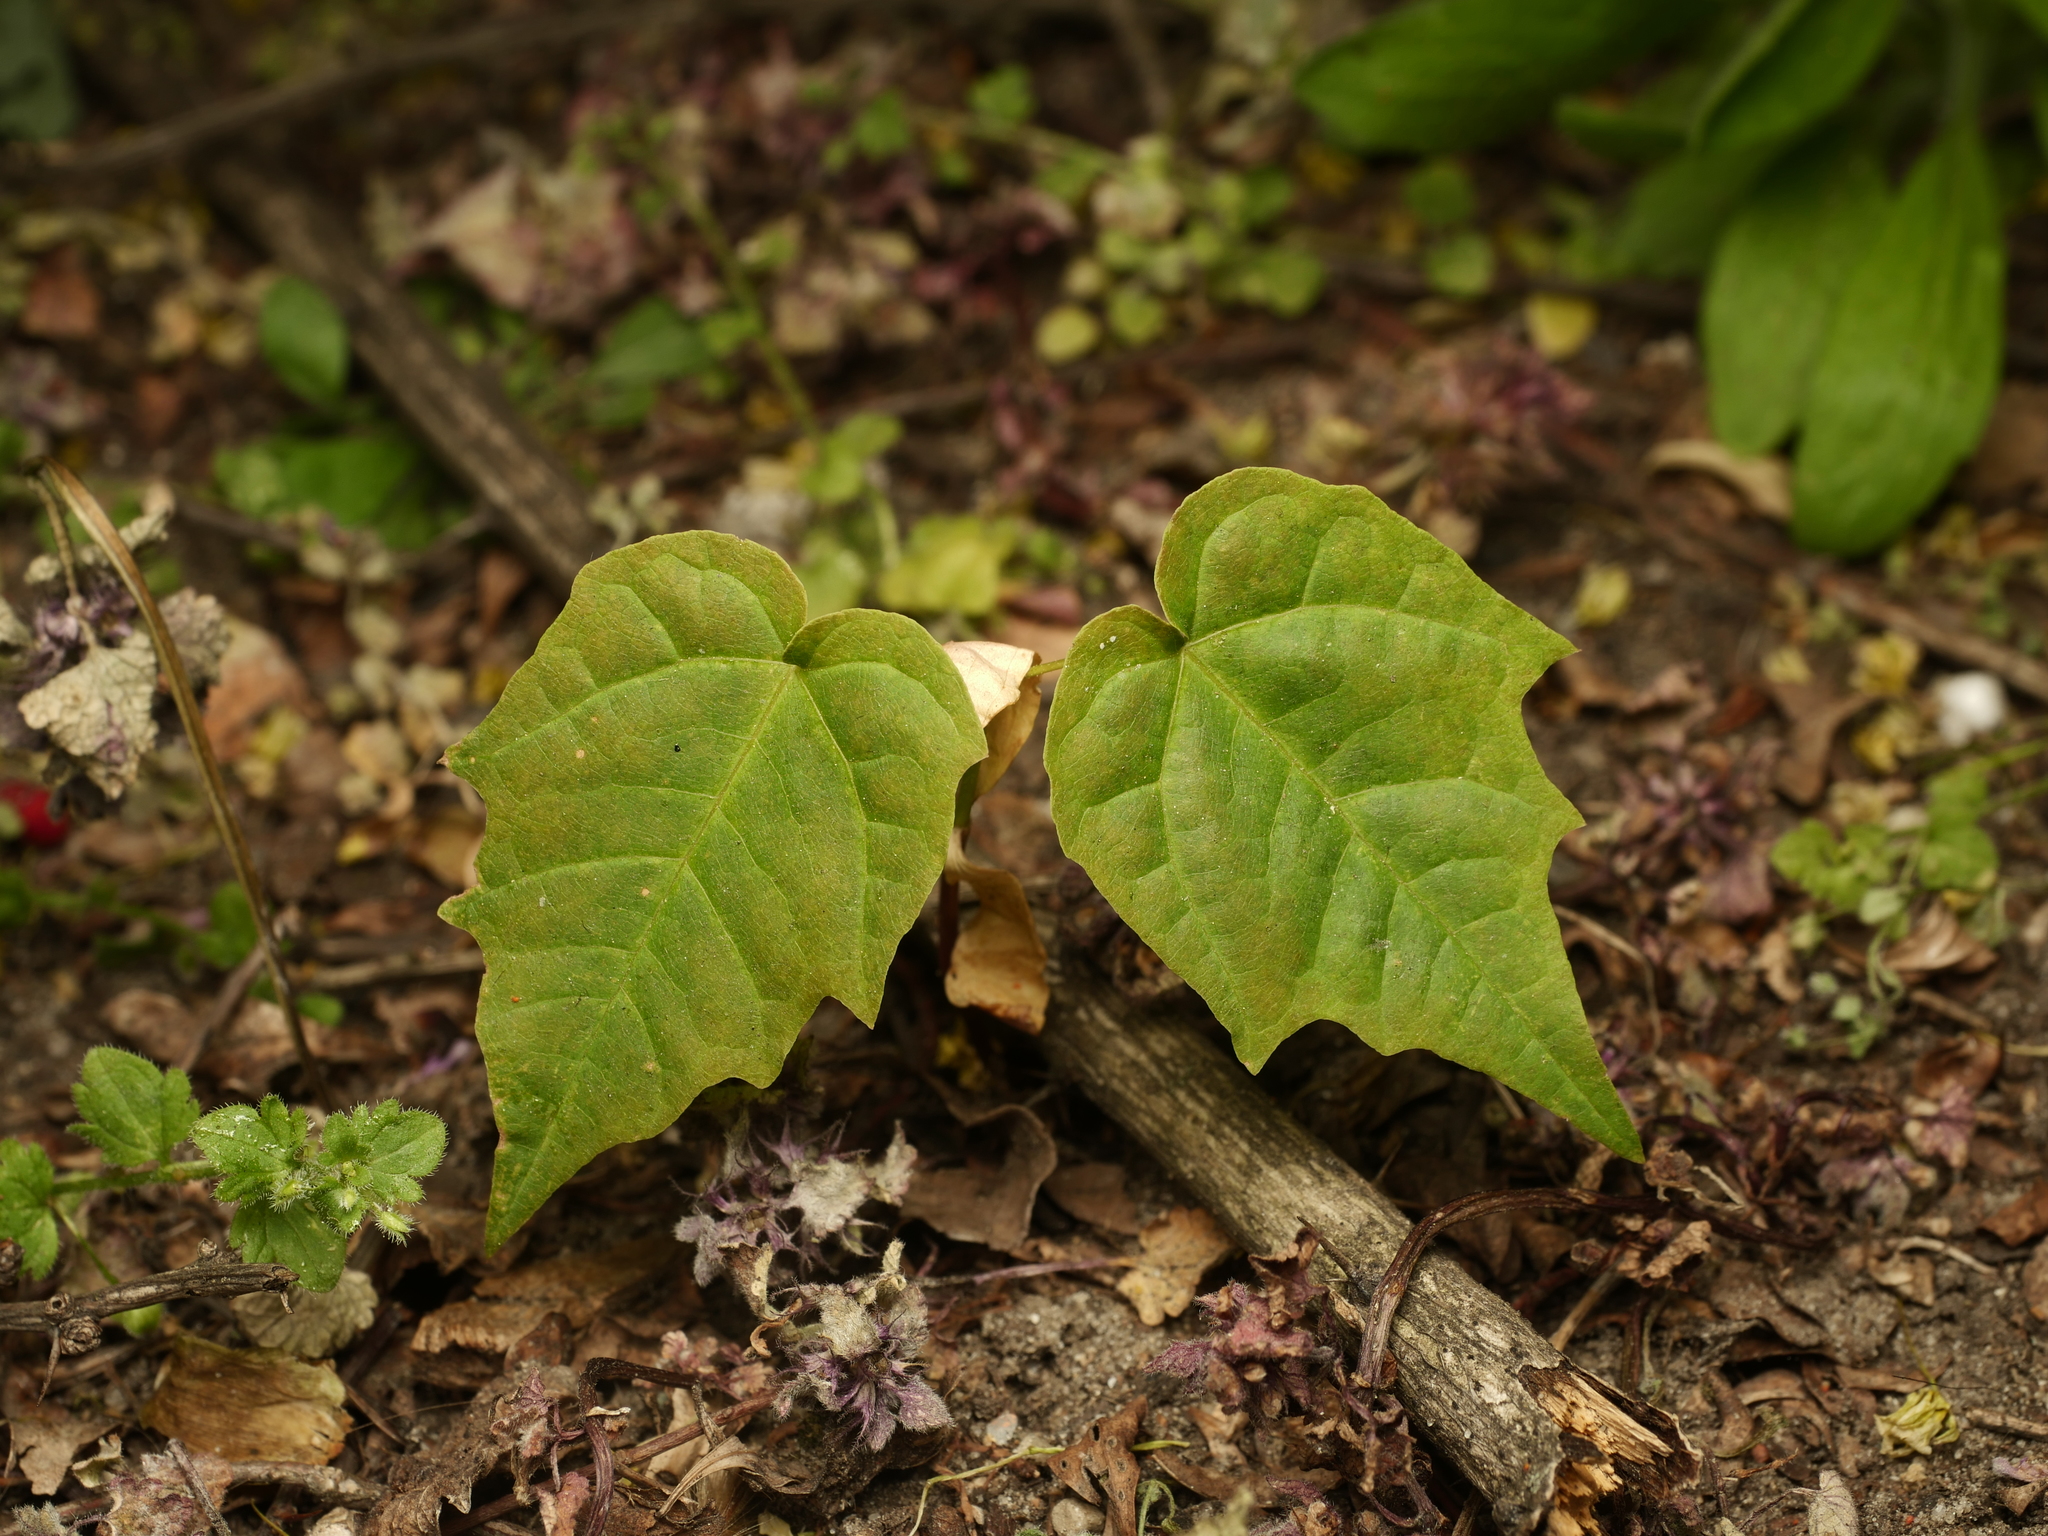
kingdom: Plantae
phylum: Tracheophyta
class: Magnoliopsida
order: Sapindales
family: Sapindaceae
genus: Acer
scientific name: Acer platanoides
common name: Norway maple
